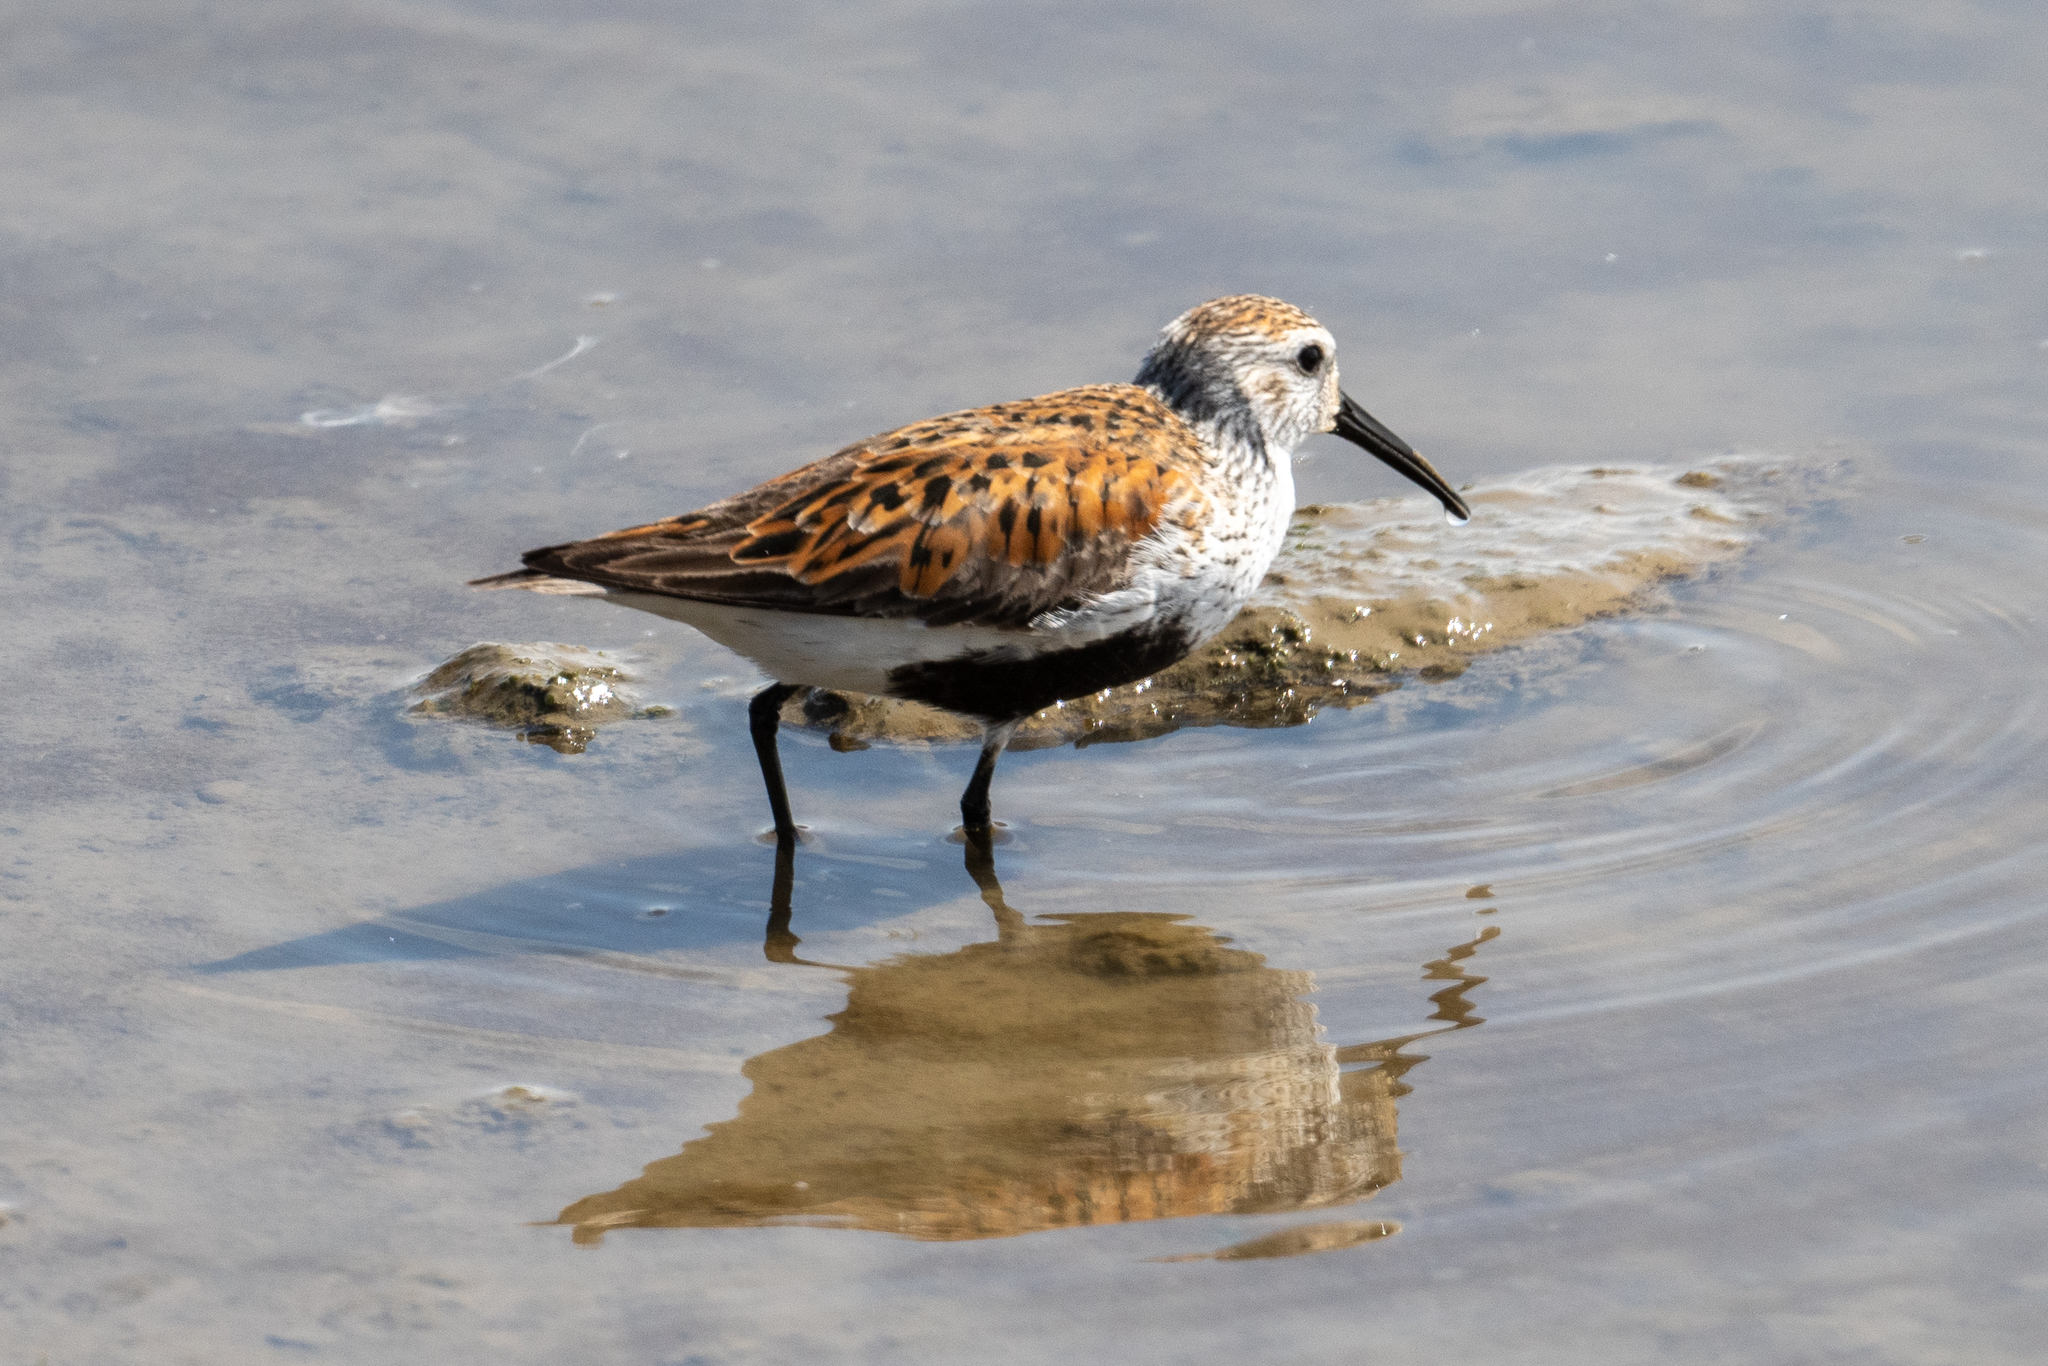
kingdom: Animalia
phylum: Chordata
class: Aves
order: Charadriiformes
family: Scolopacidae
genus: Calidris
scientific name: Calidris alpina
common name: Dunlin
